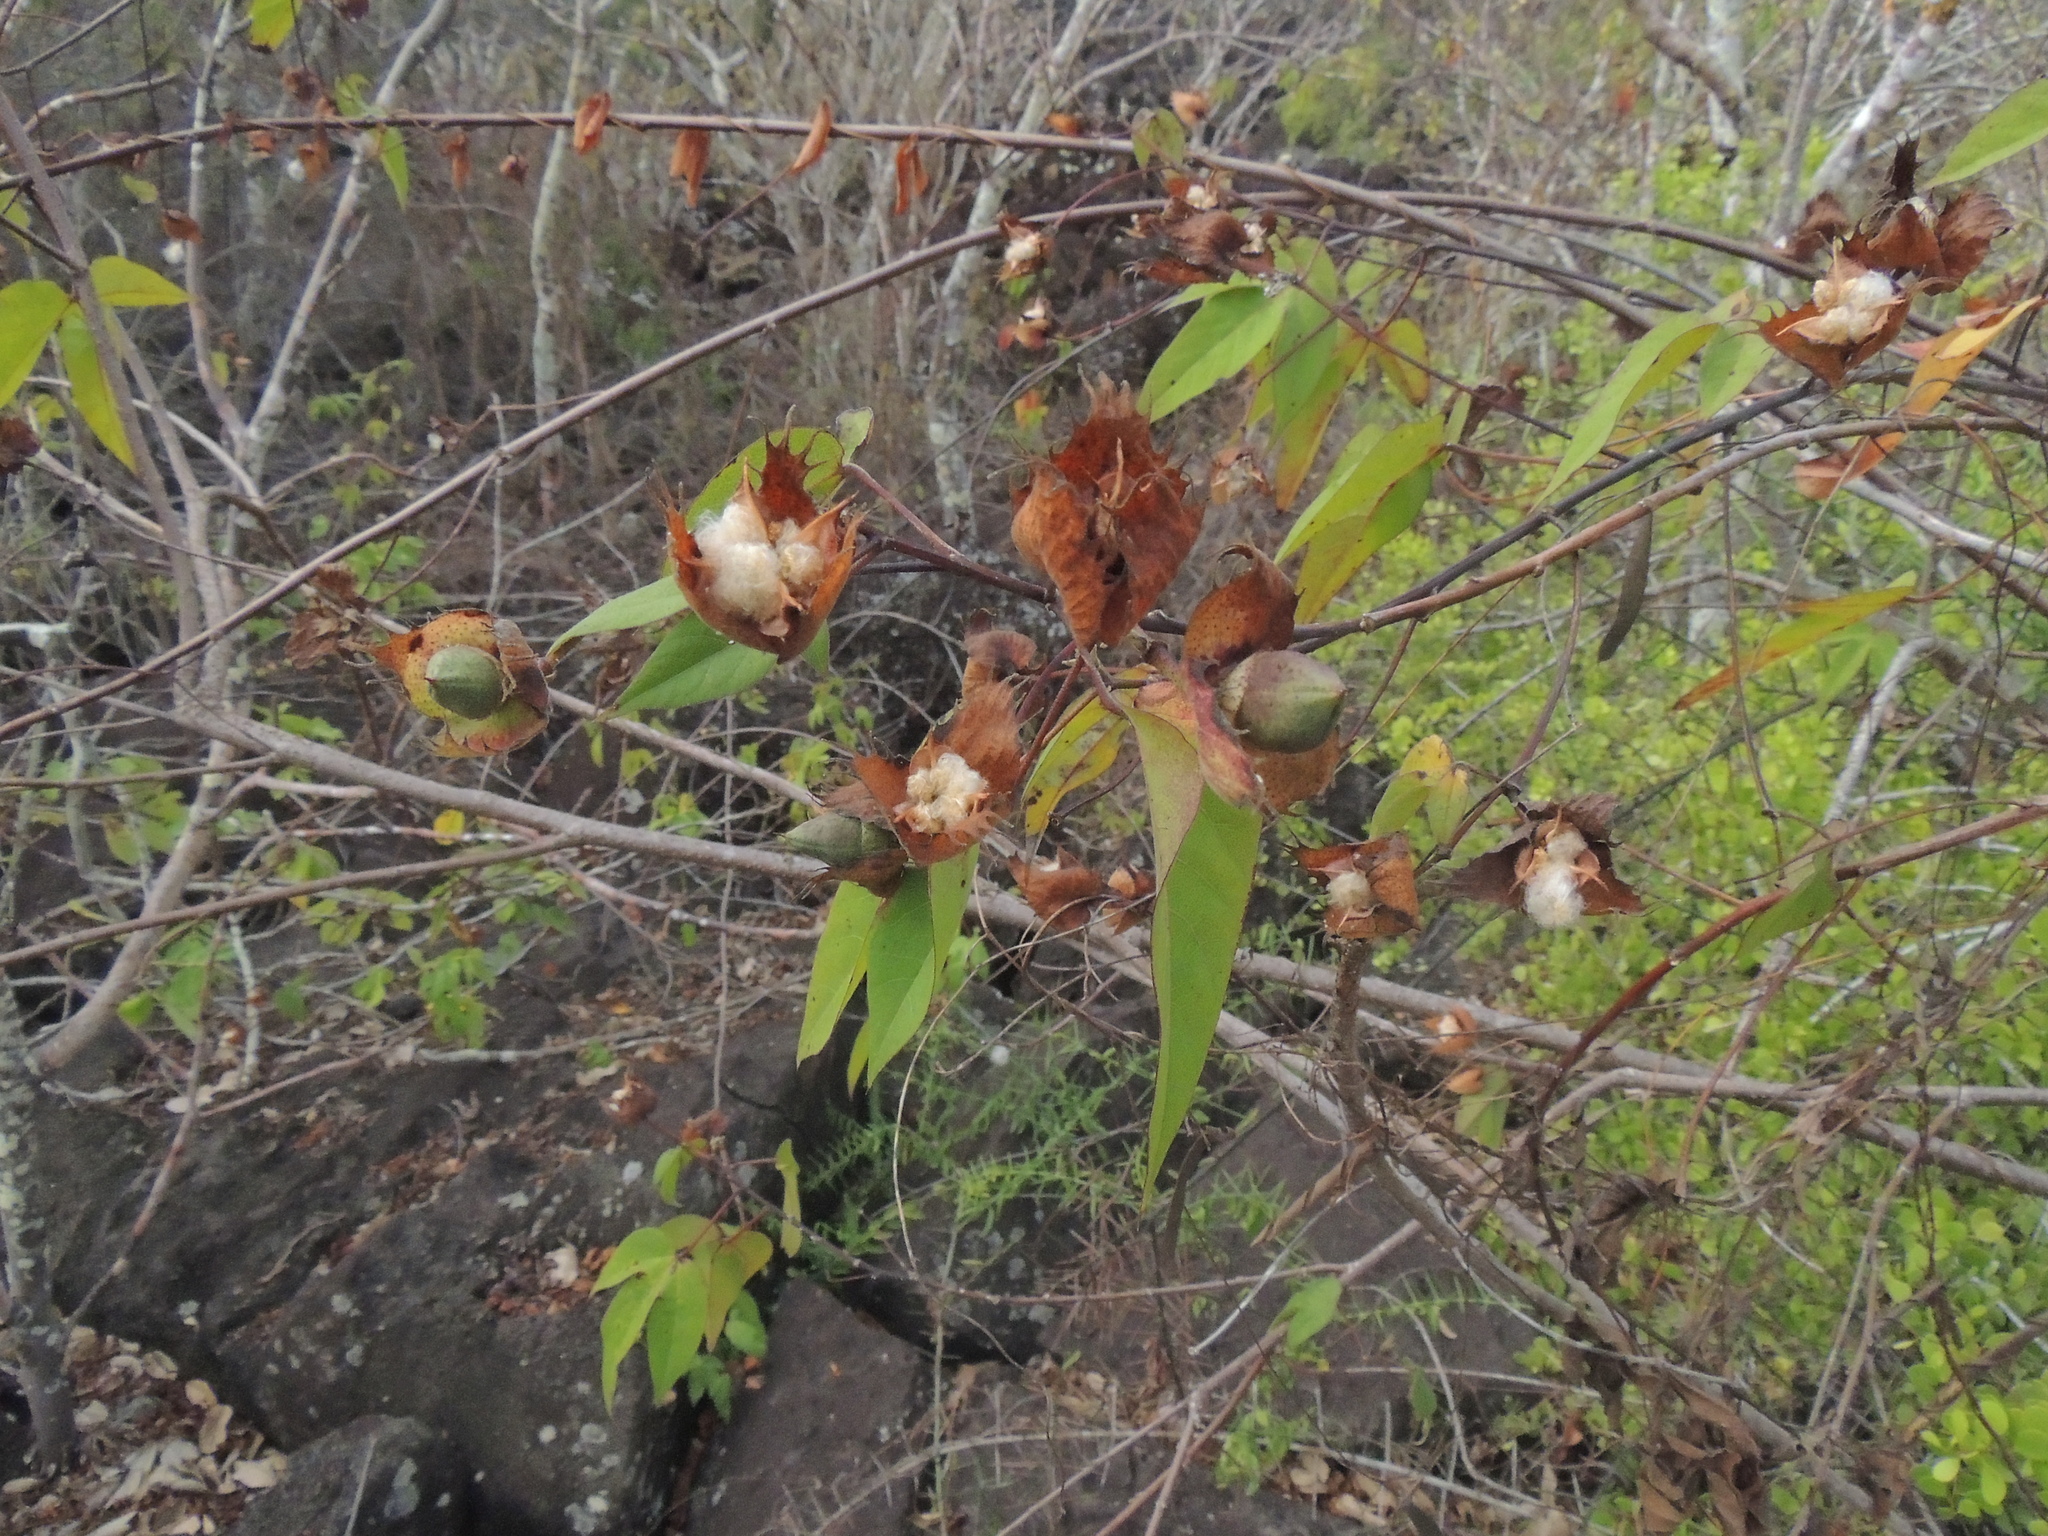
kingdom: Plantae
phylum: Tracheophyta
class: Magnoliopsida
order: Malvales
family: Malvaceae
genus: Gossypium
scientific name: Gossypium darwinii
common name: Darwin's cotton
